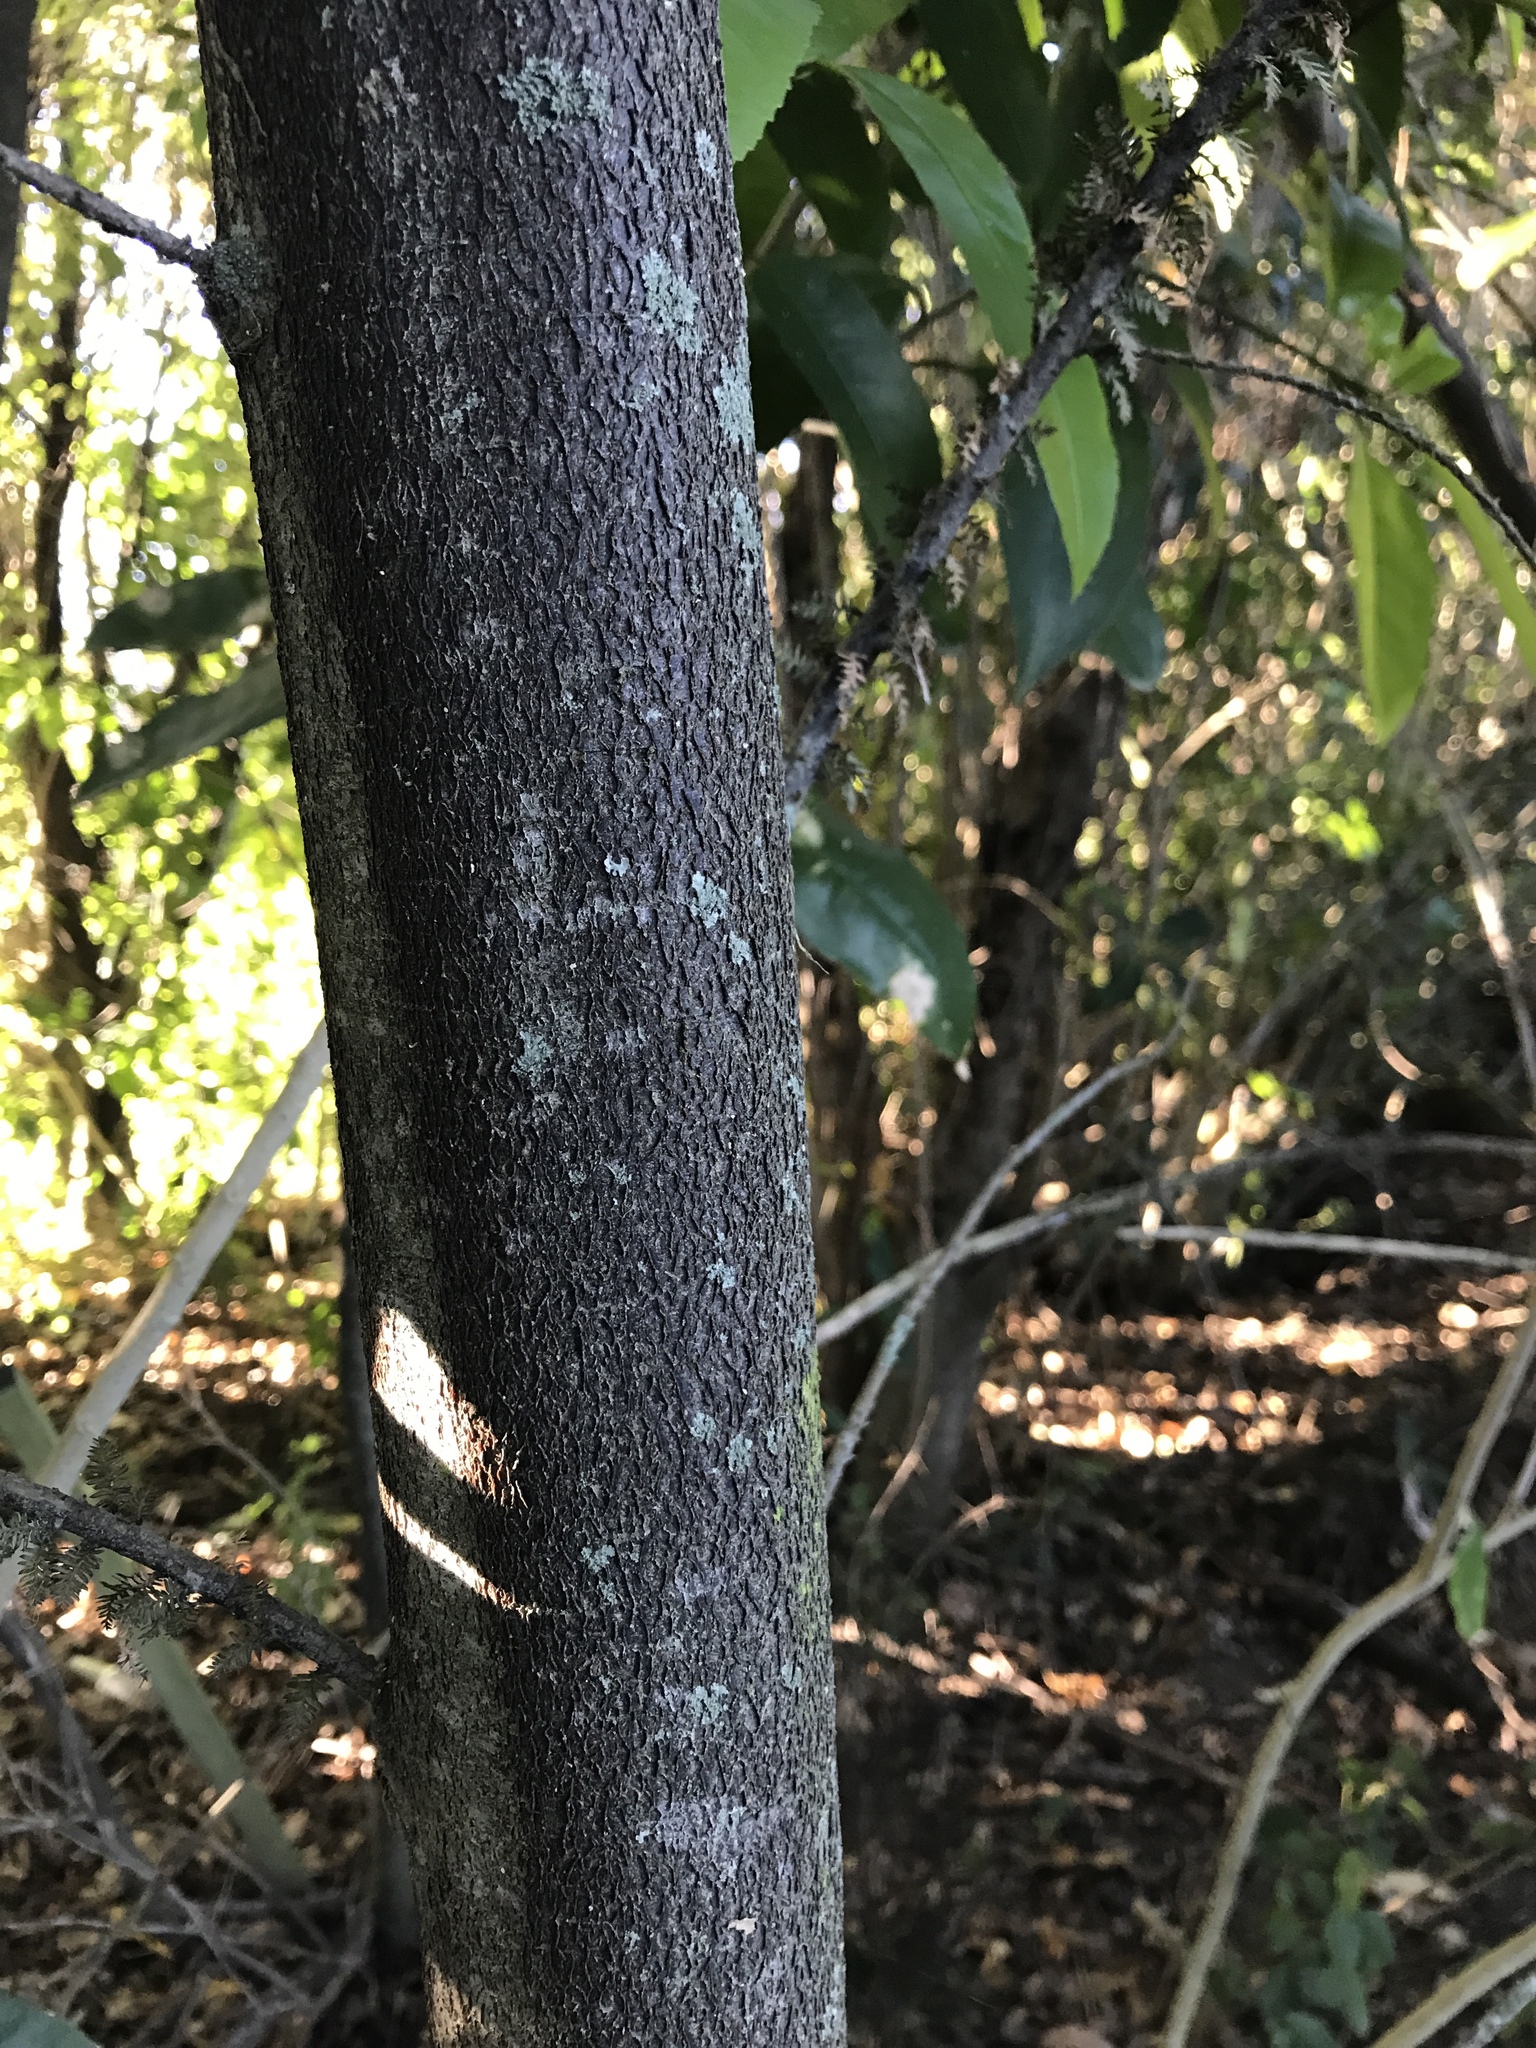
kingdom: Plantae
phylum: Tracheophyta
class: Pinopsida
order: Pinales
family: Podocarpaceae
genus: Dacrycarpus
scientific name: Dacrycarpus dacrydioides
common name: White pine
